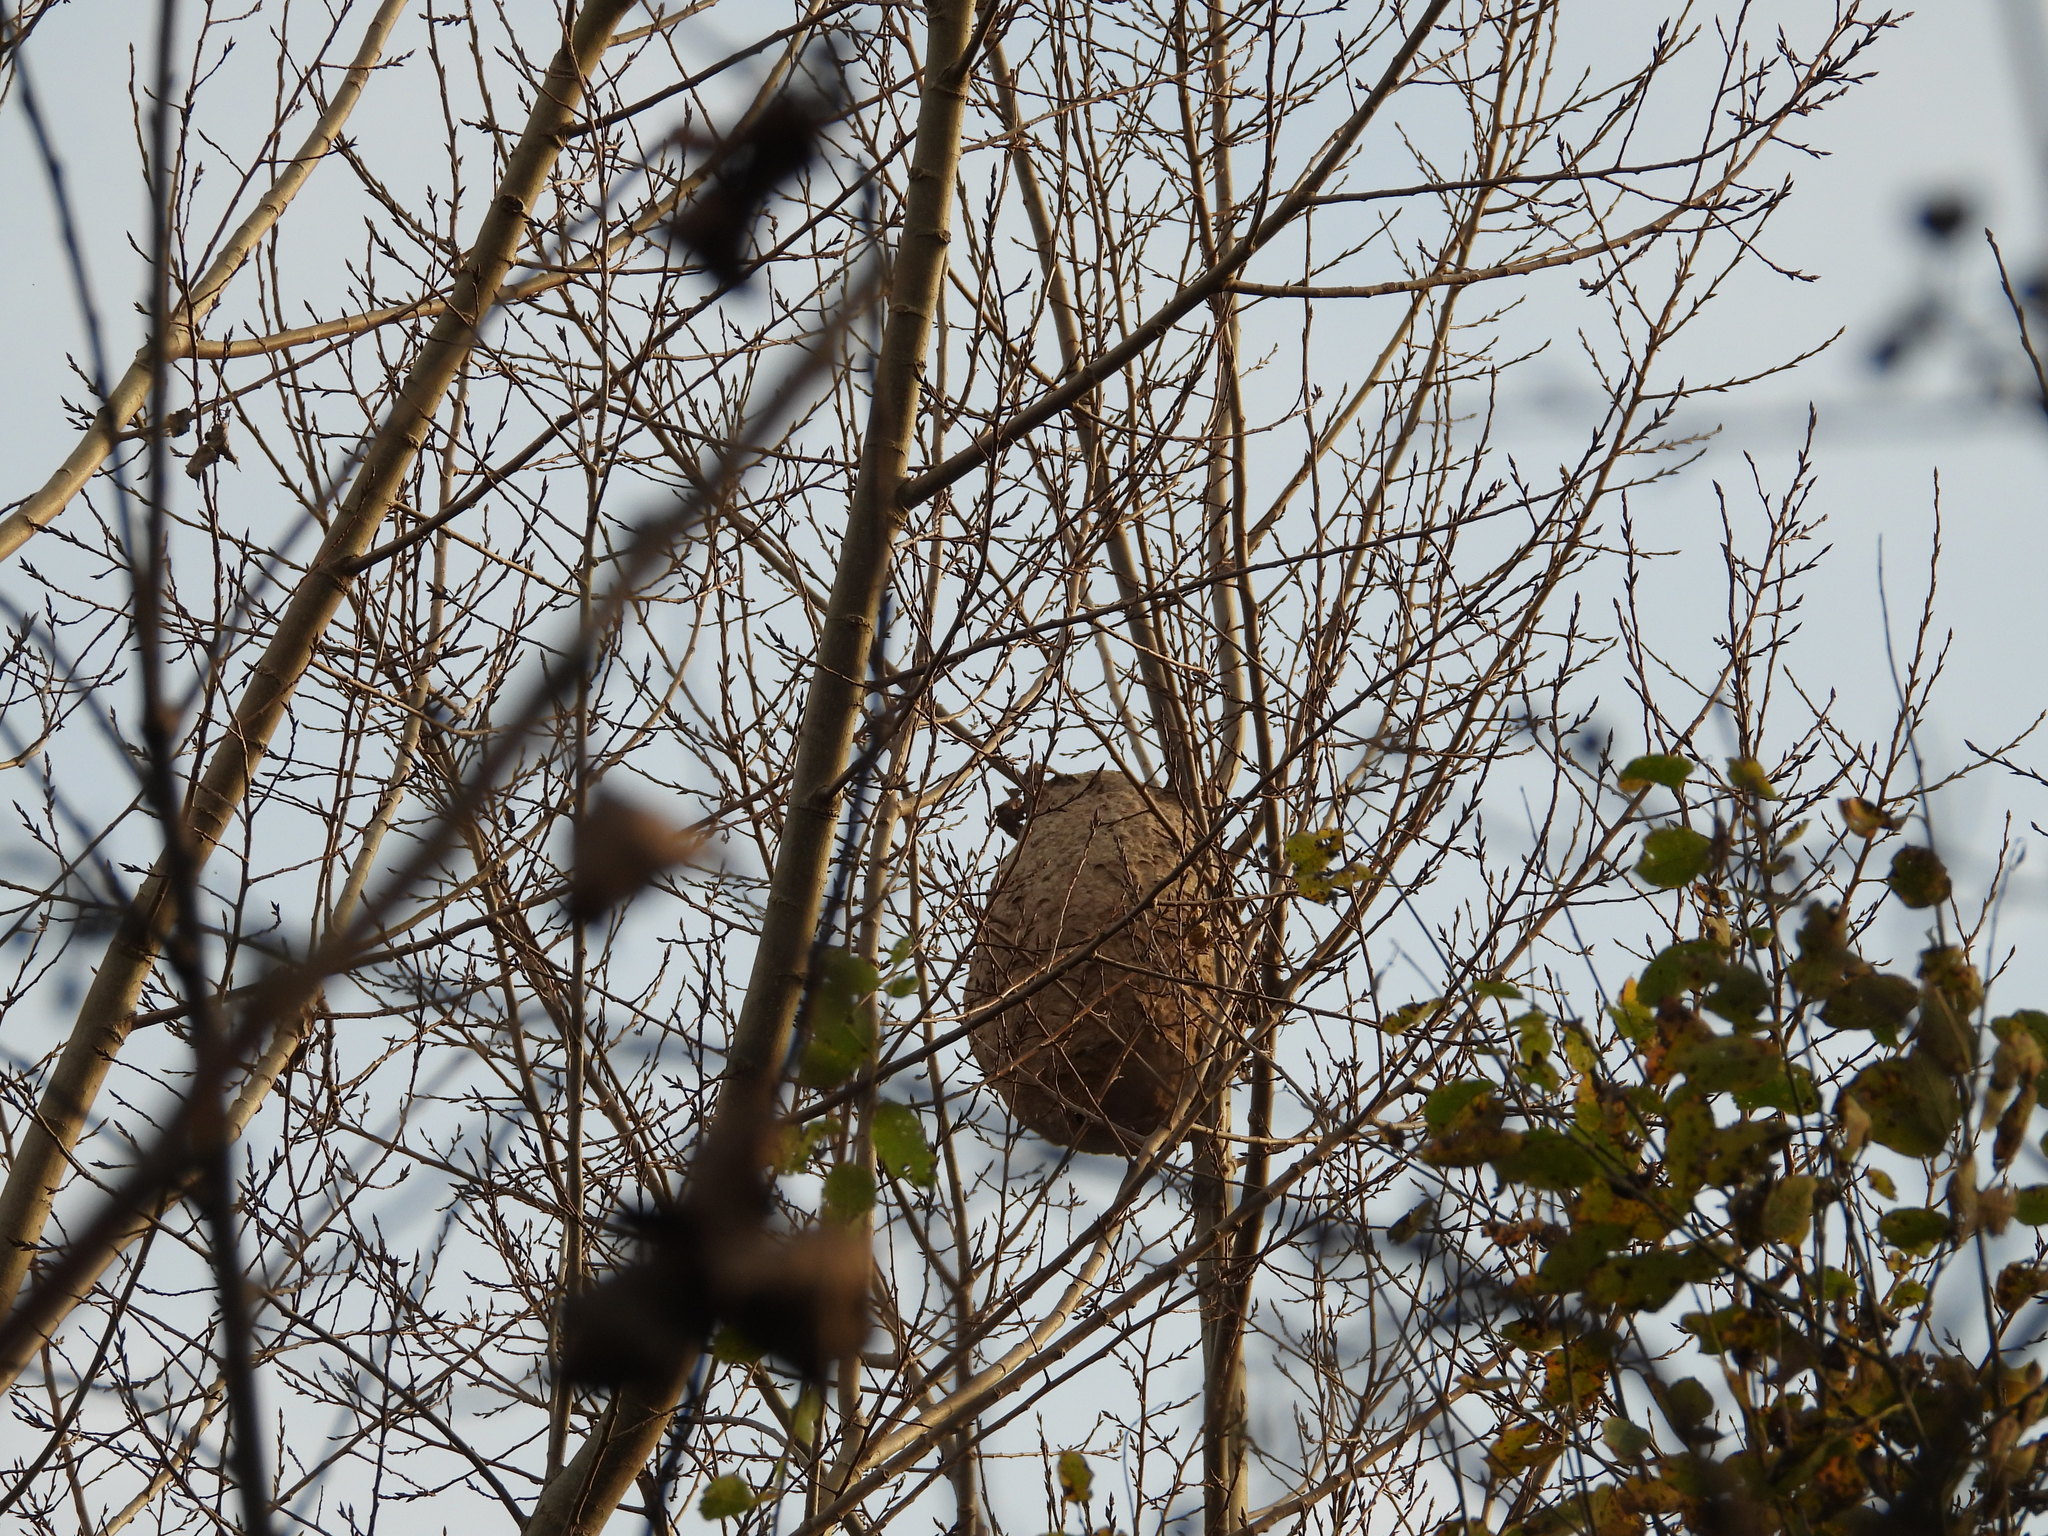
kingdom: Animalia
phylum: Arthropoda
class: Insecta
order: Hymenoptera
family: Vespidae
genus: Vespa
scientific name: Vespa velutina
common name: Asian hornet
